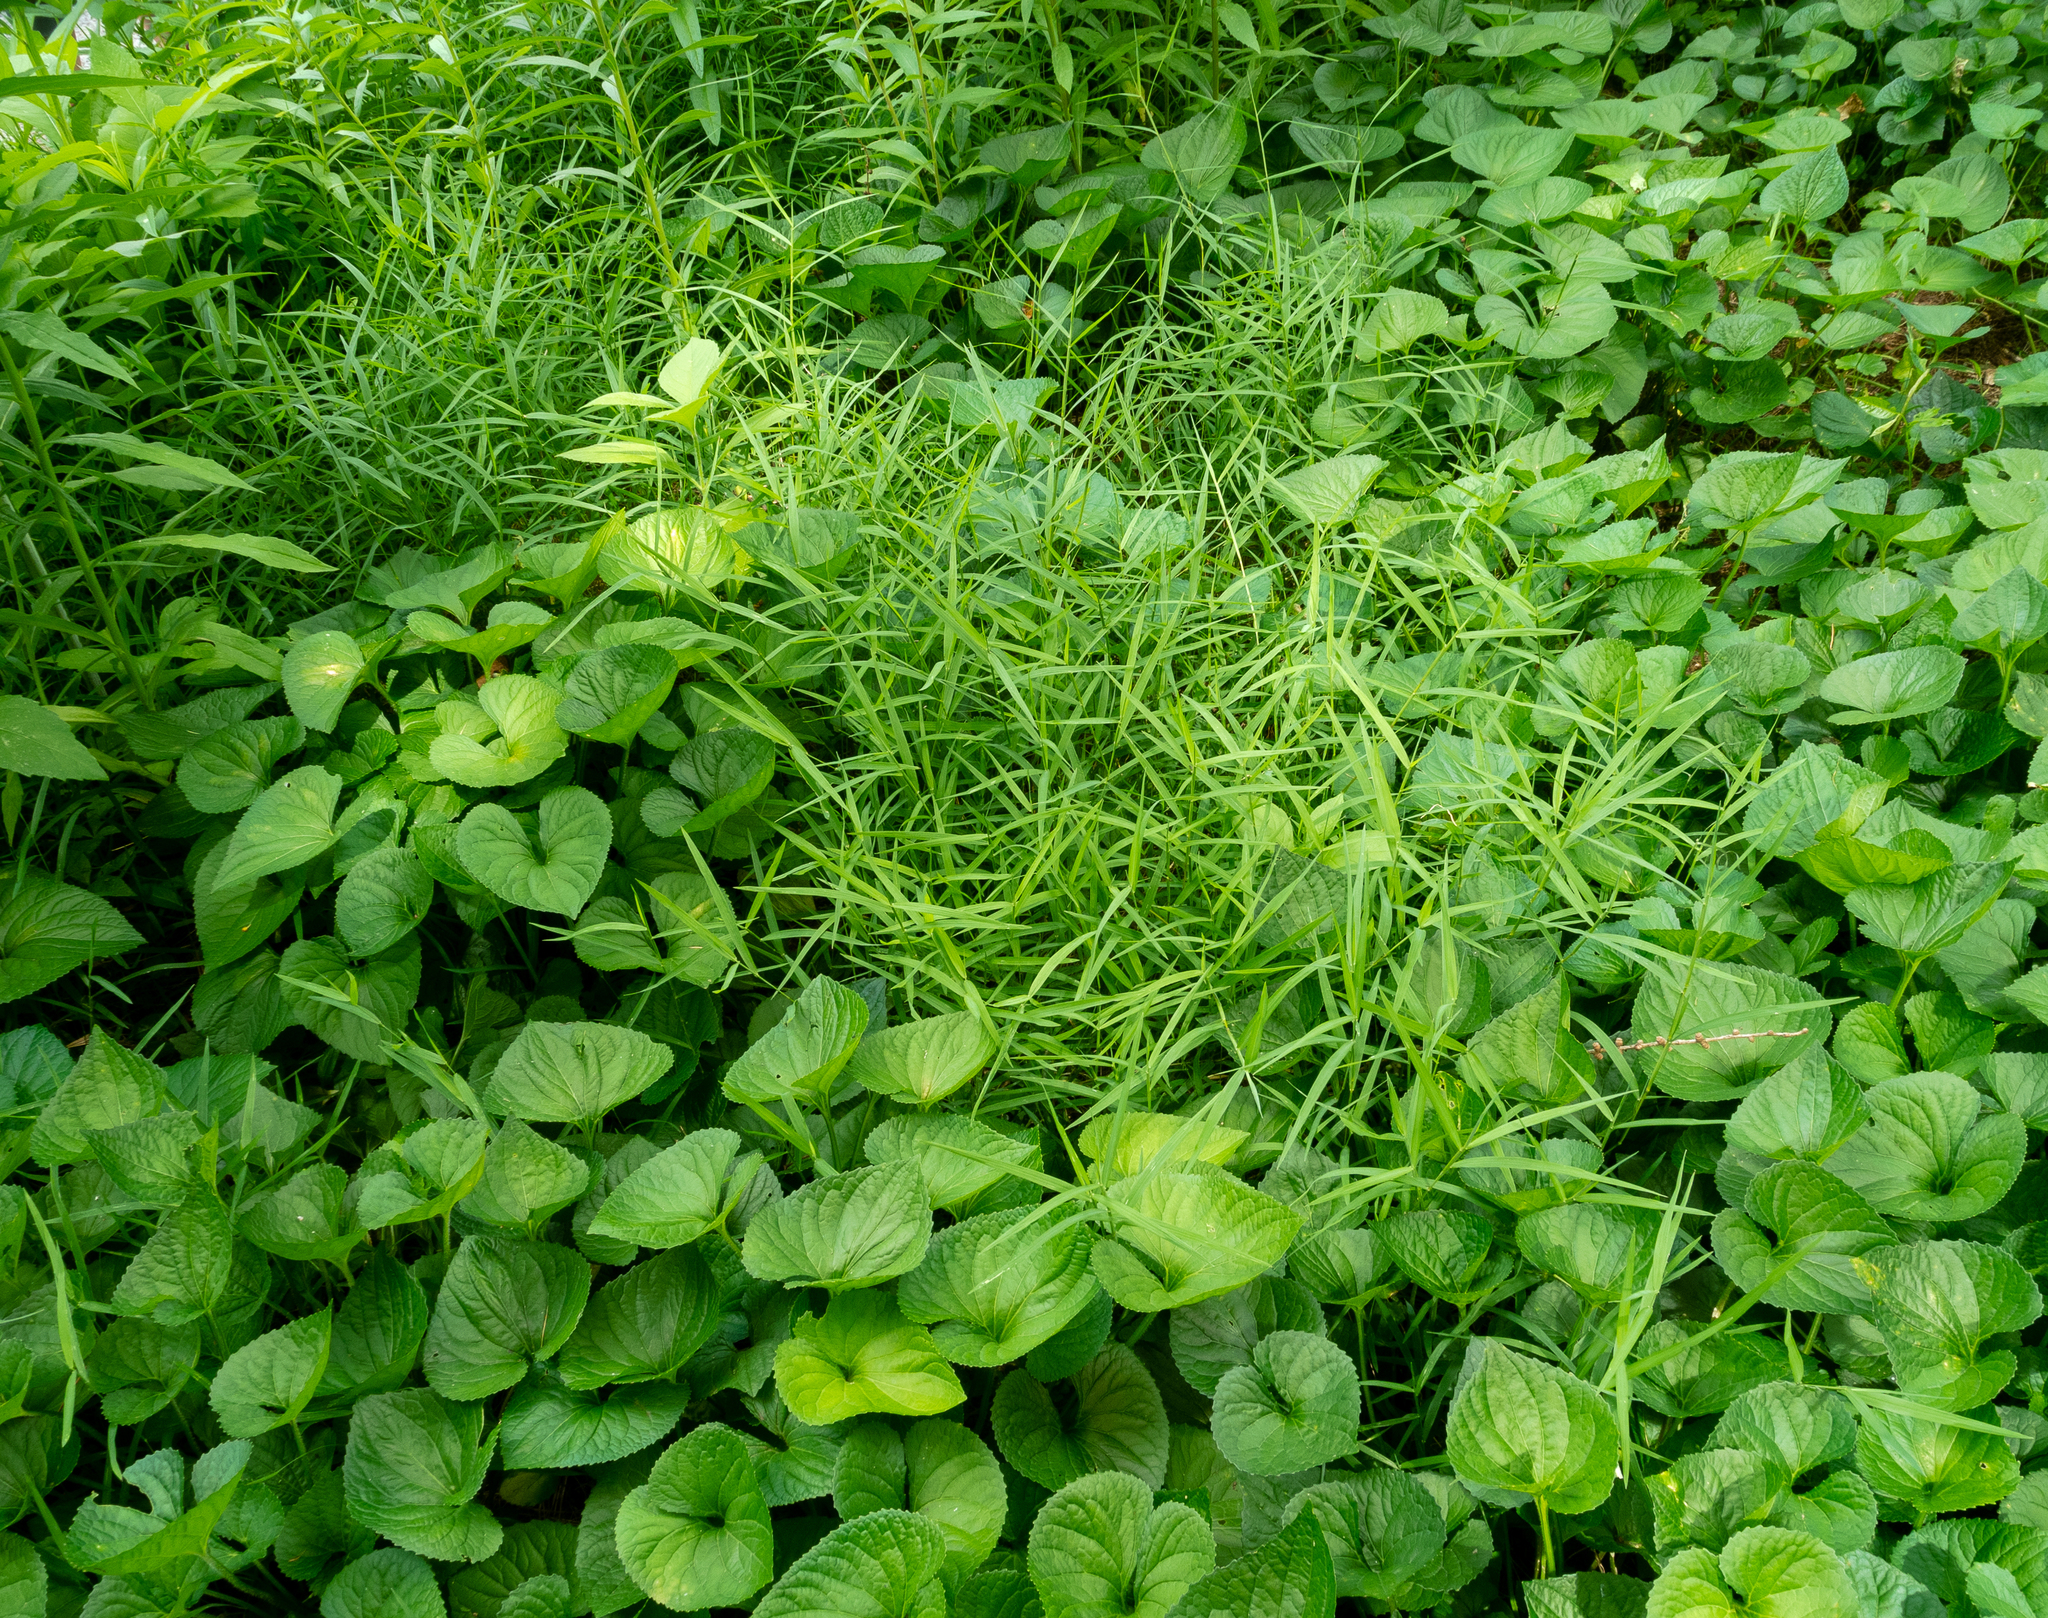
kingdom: Plantae
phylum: Tracheophyta
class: Liliopsida
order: Poales
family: Poaceae
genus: Muhlenbergia
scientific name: Muhlenbergia schreberi
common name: Nimblewill
